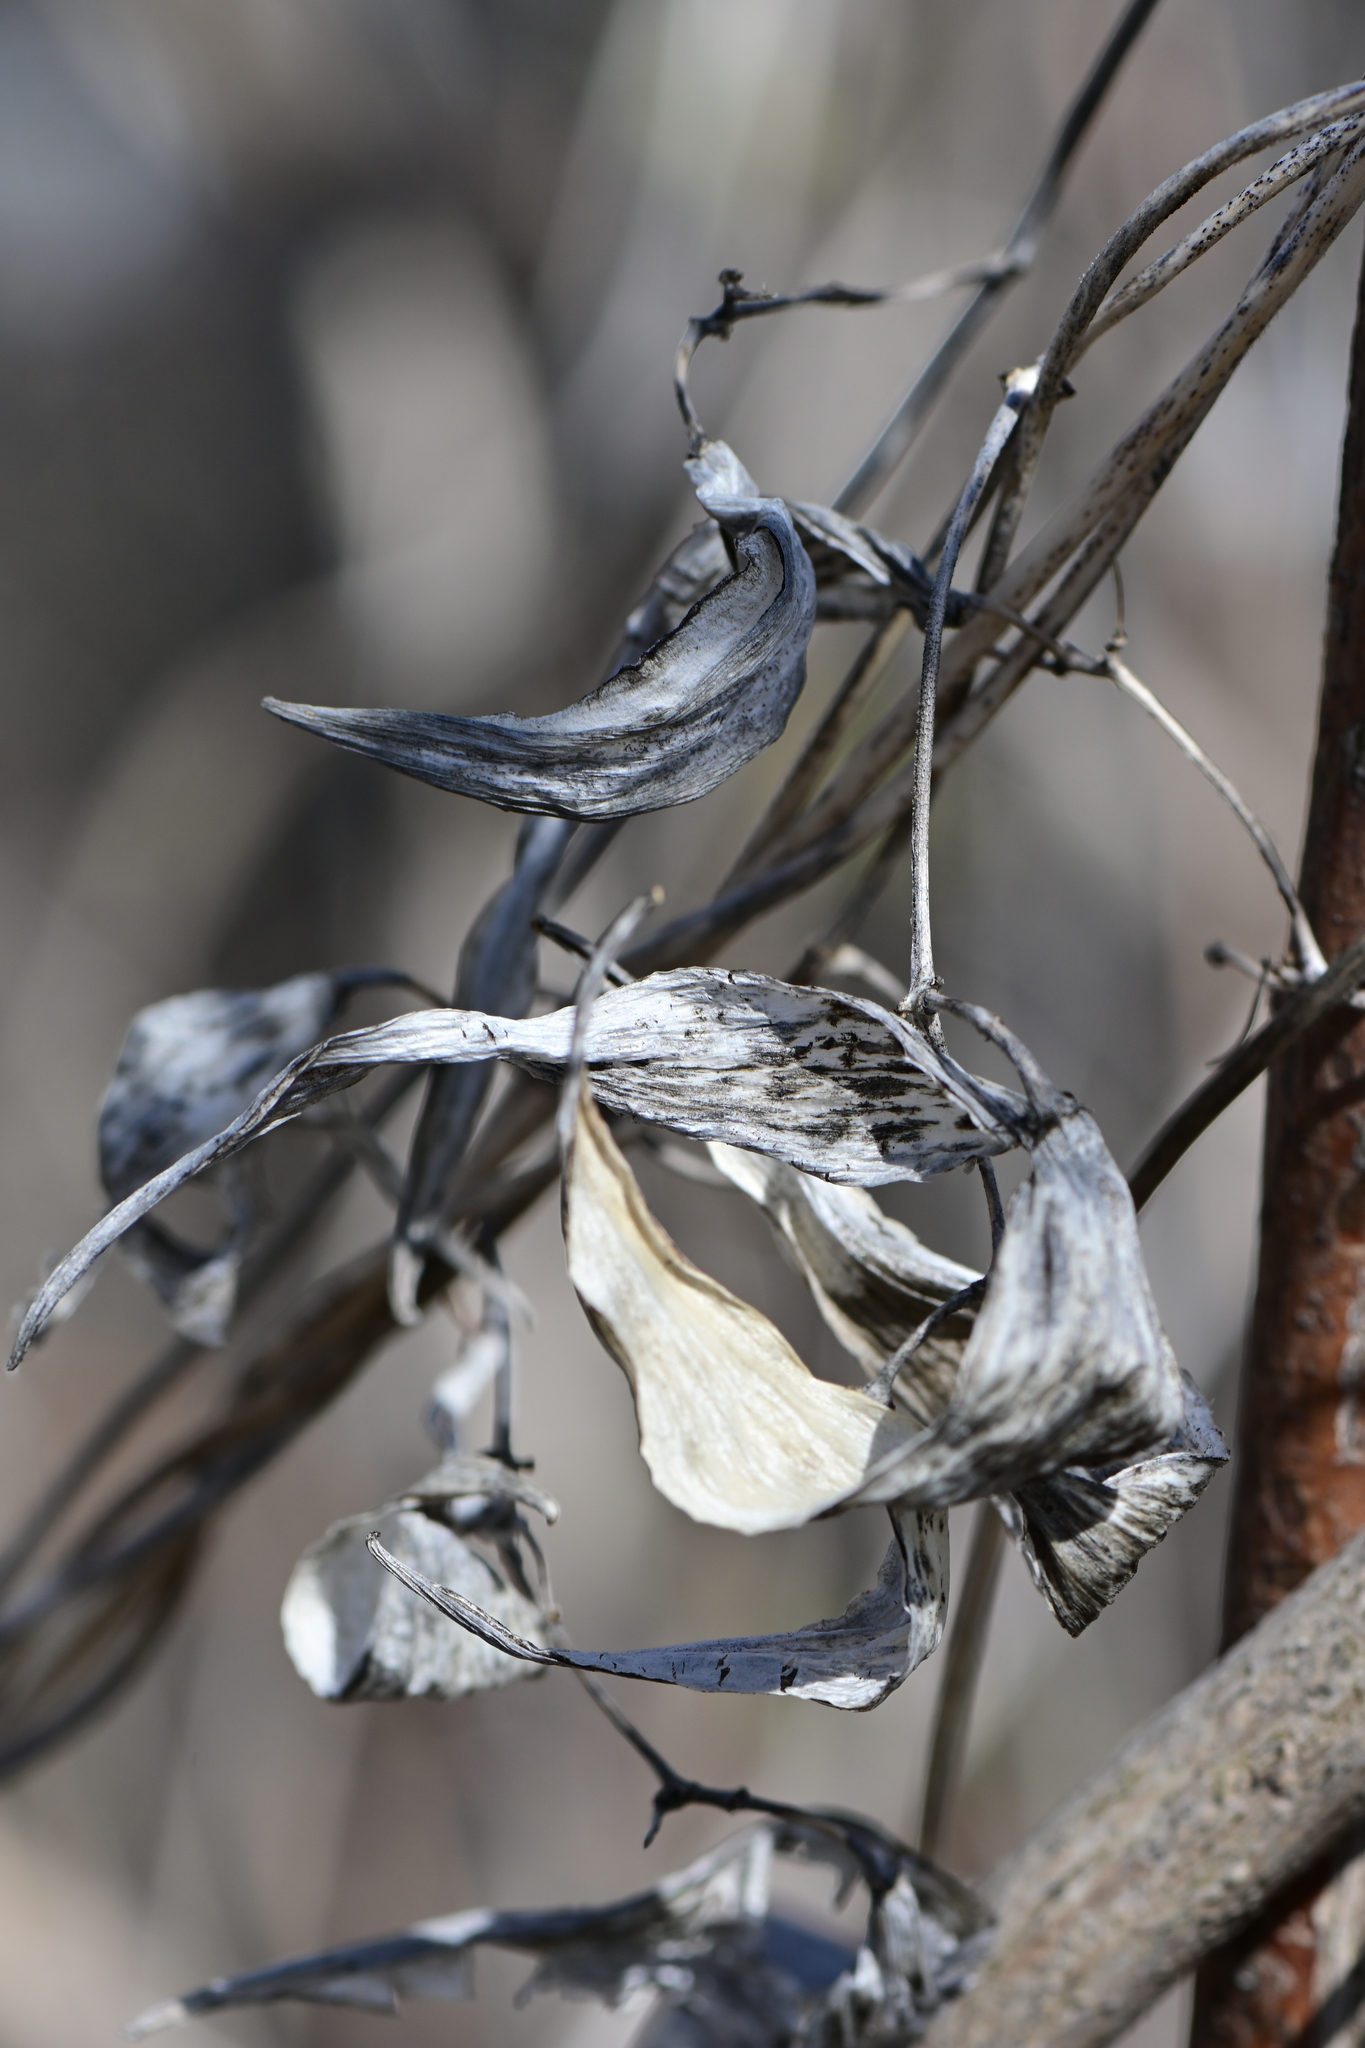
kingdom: Plantae
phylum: Tracheophyta
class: Magnoliopsida
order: Gentianales
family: Apocynaceae
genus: Vincetoxicum
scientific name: Vincetoxicum rossicum
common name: Dog-strangling vine
